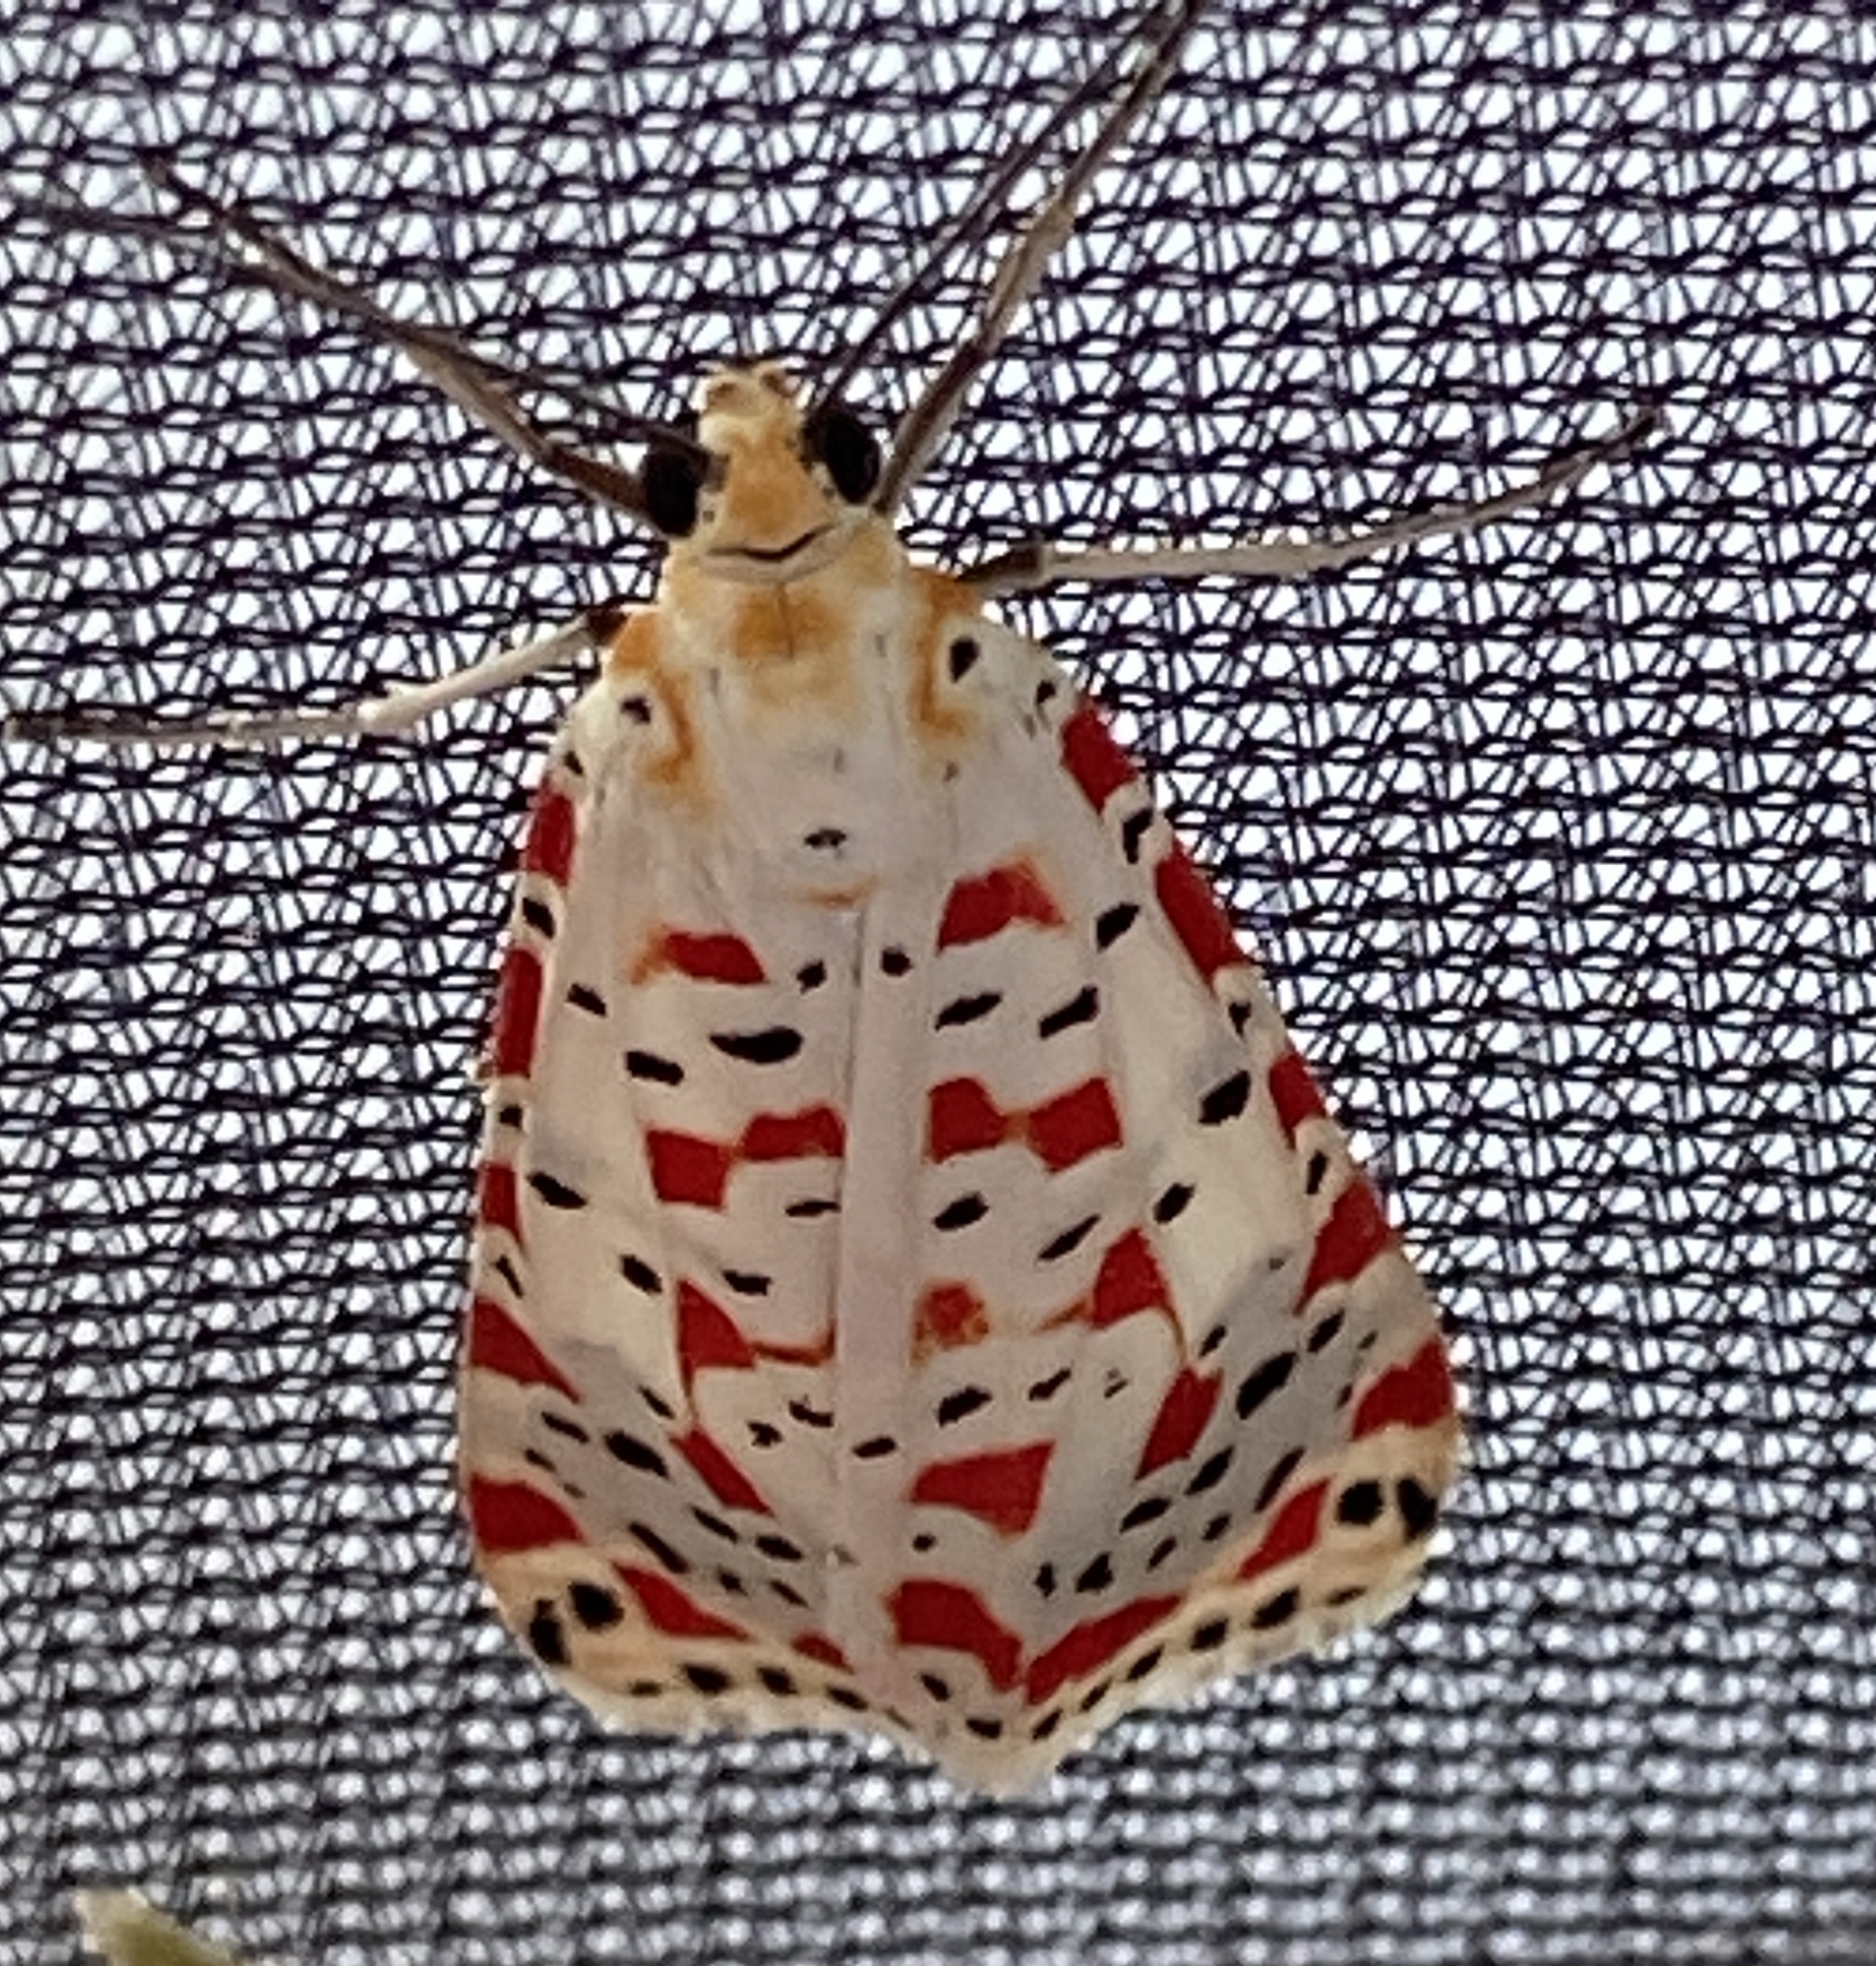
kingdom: Animalia
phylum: Arthropoda
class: Insecta
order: Lepidoptera
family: Erebidae
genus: Utetheisa
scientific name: Utetheisa pulchella
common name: Crimson speckled
